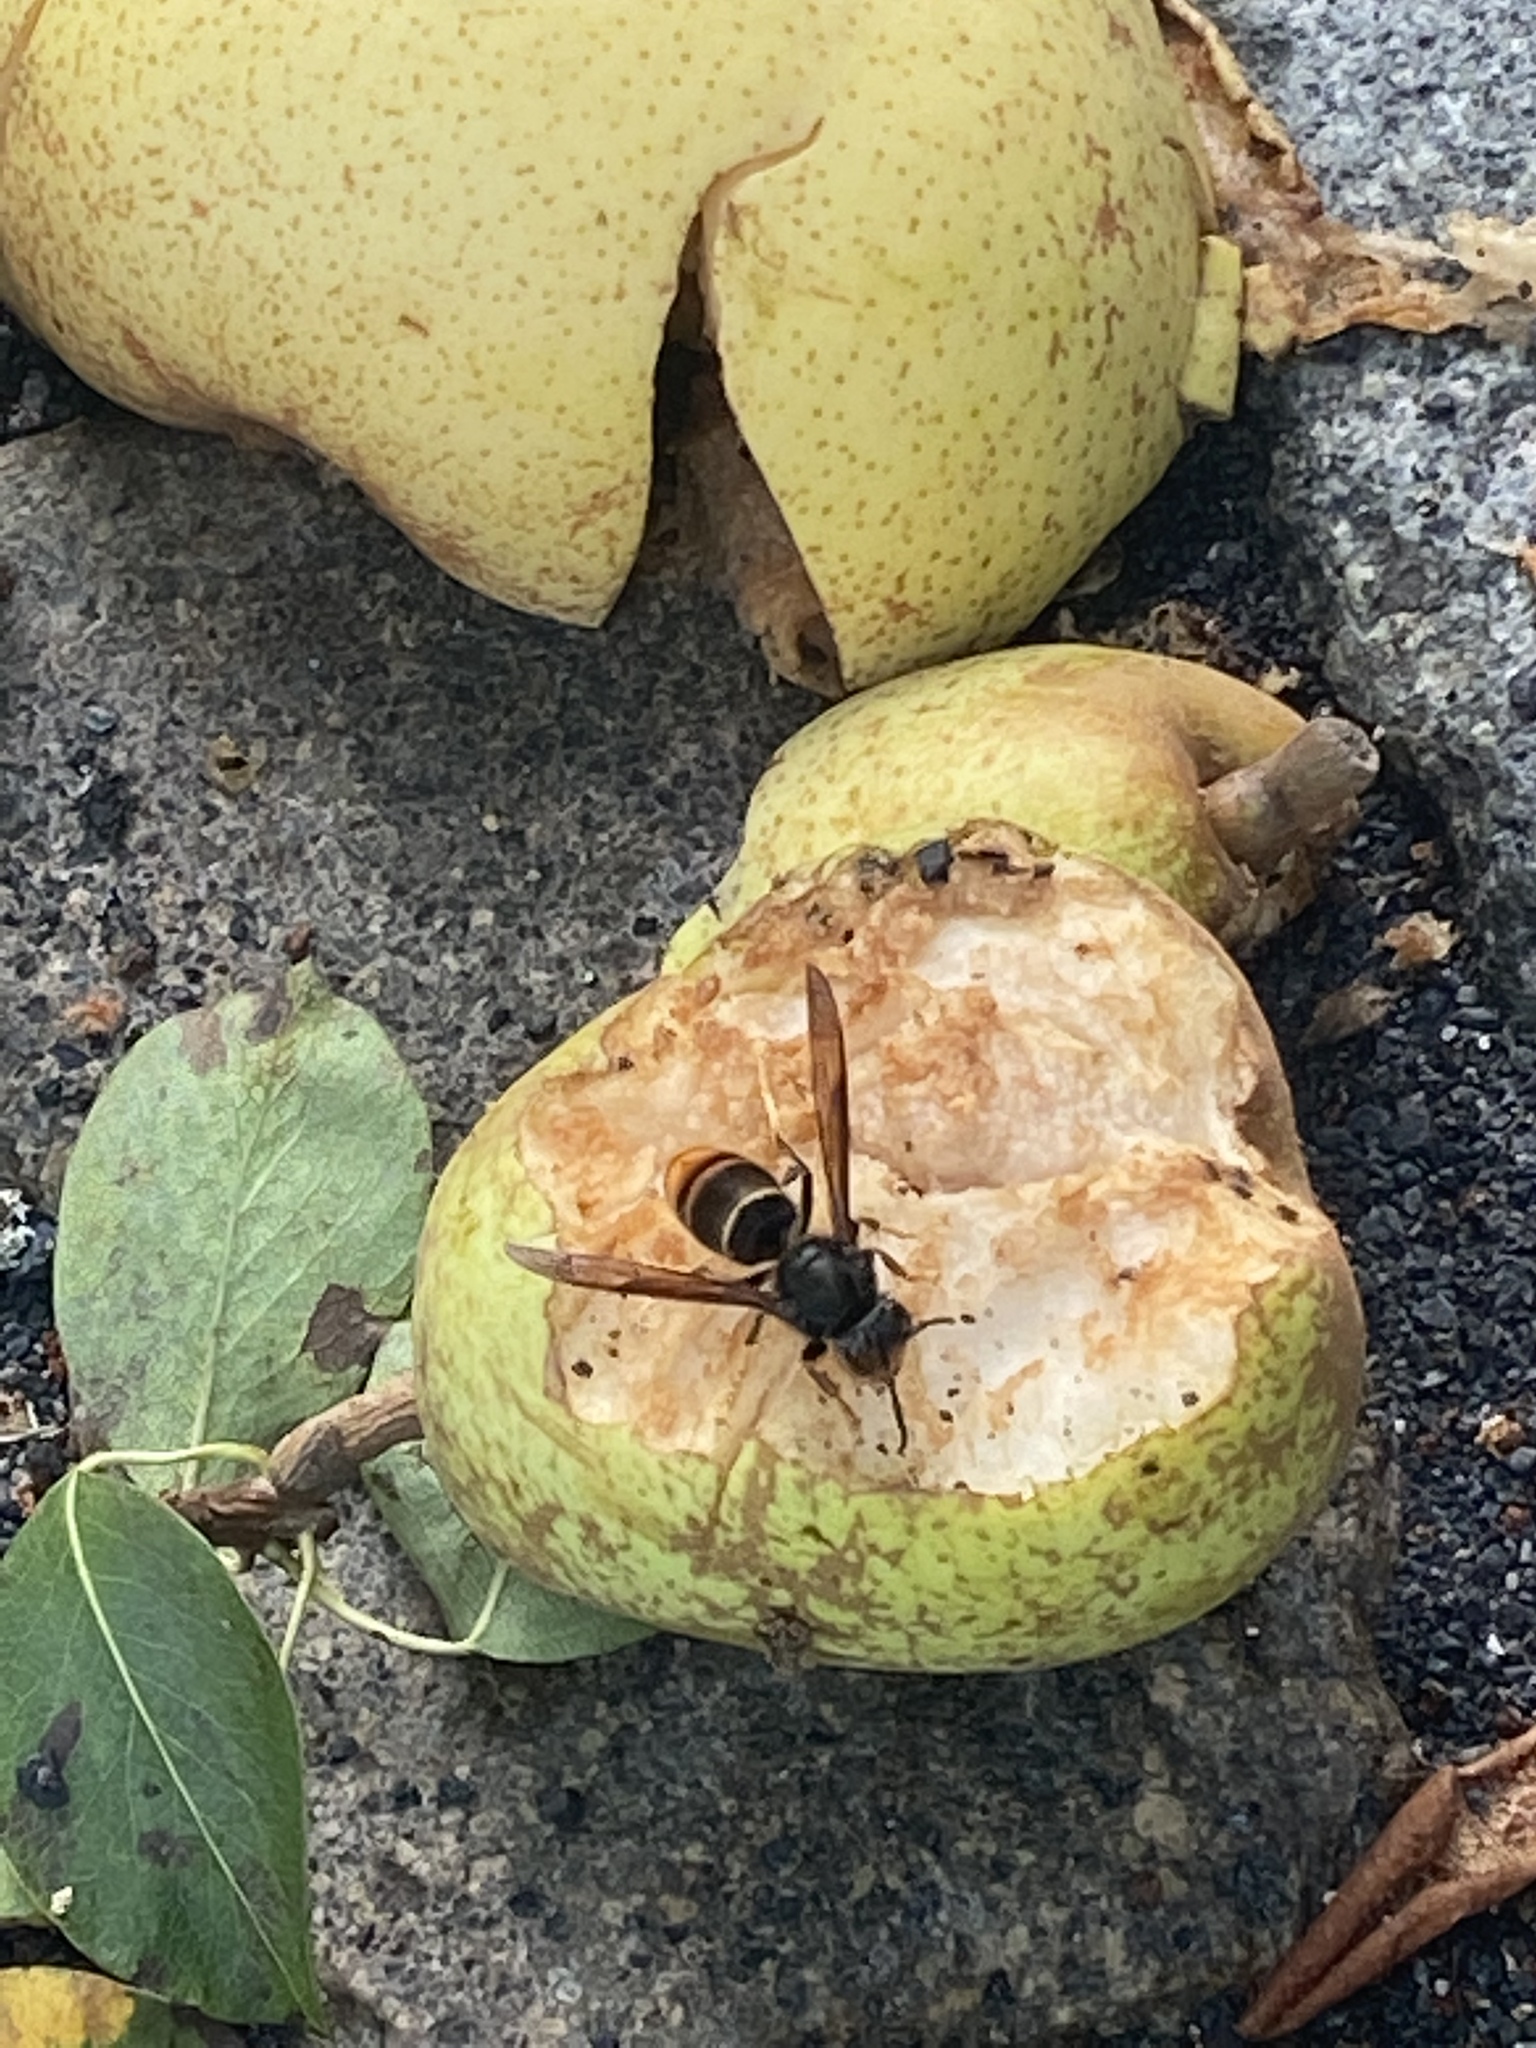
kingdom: Animalia
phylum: Arthropoda
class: Insecta
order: Hymenoptera
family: Vespidae
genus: Vespa
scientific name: Vespa velutina
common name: Asian hornet
